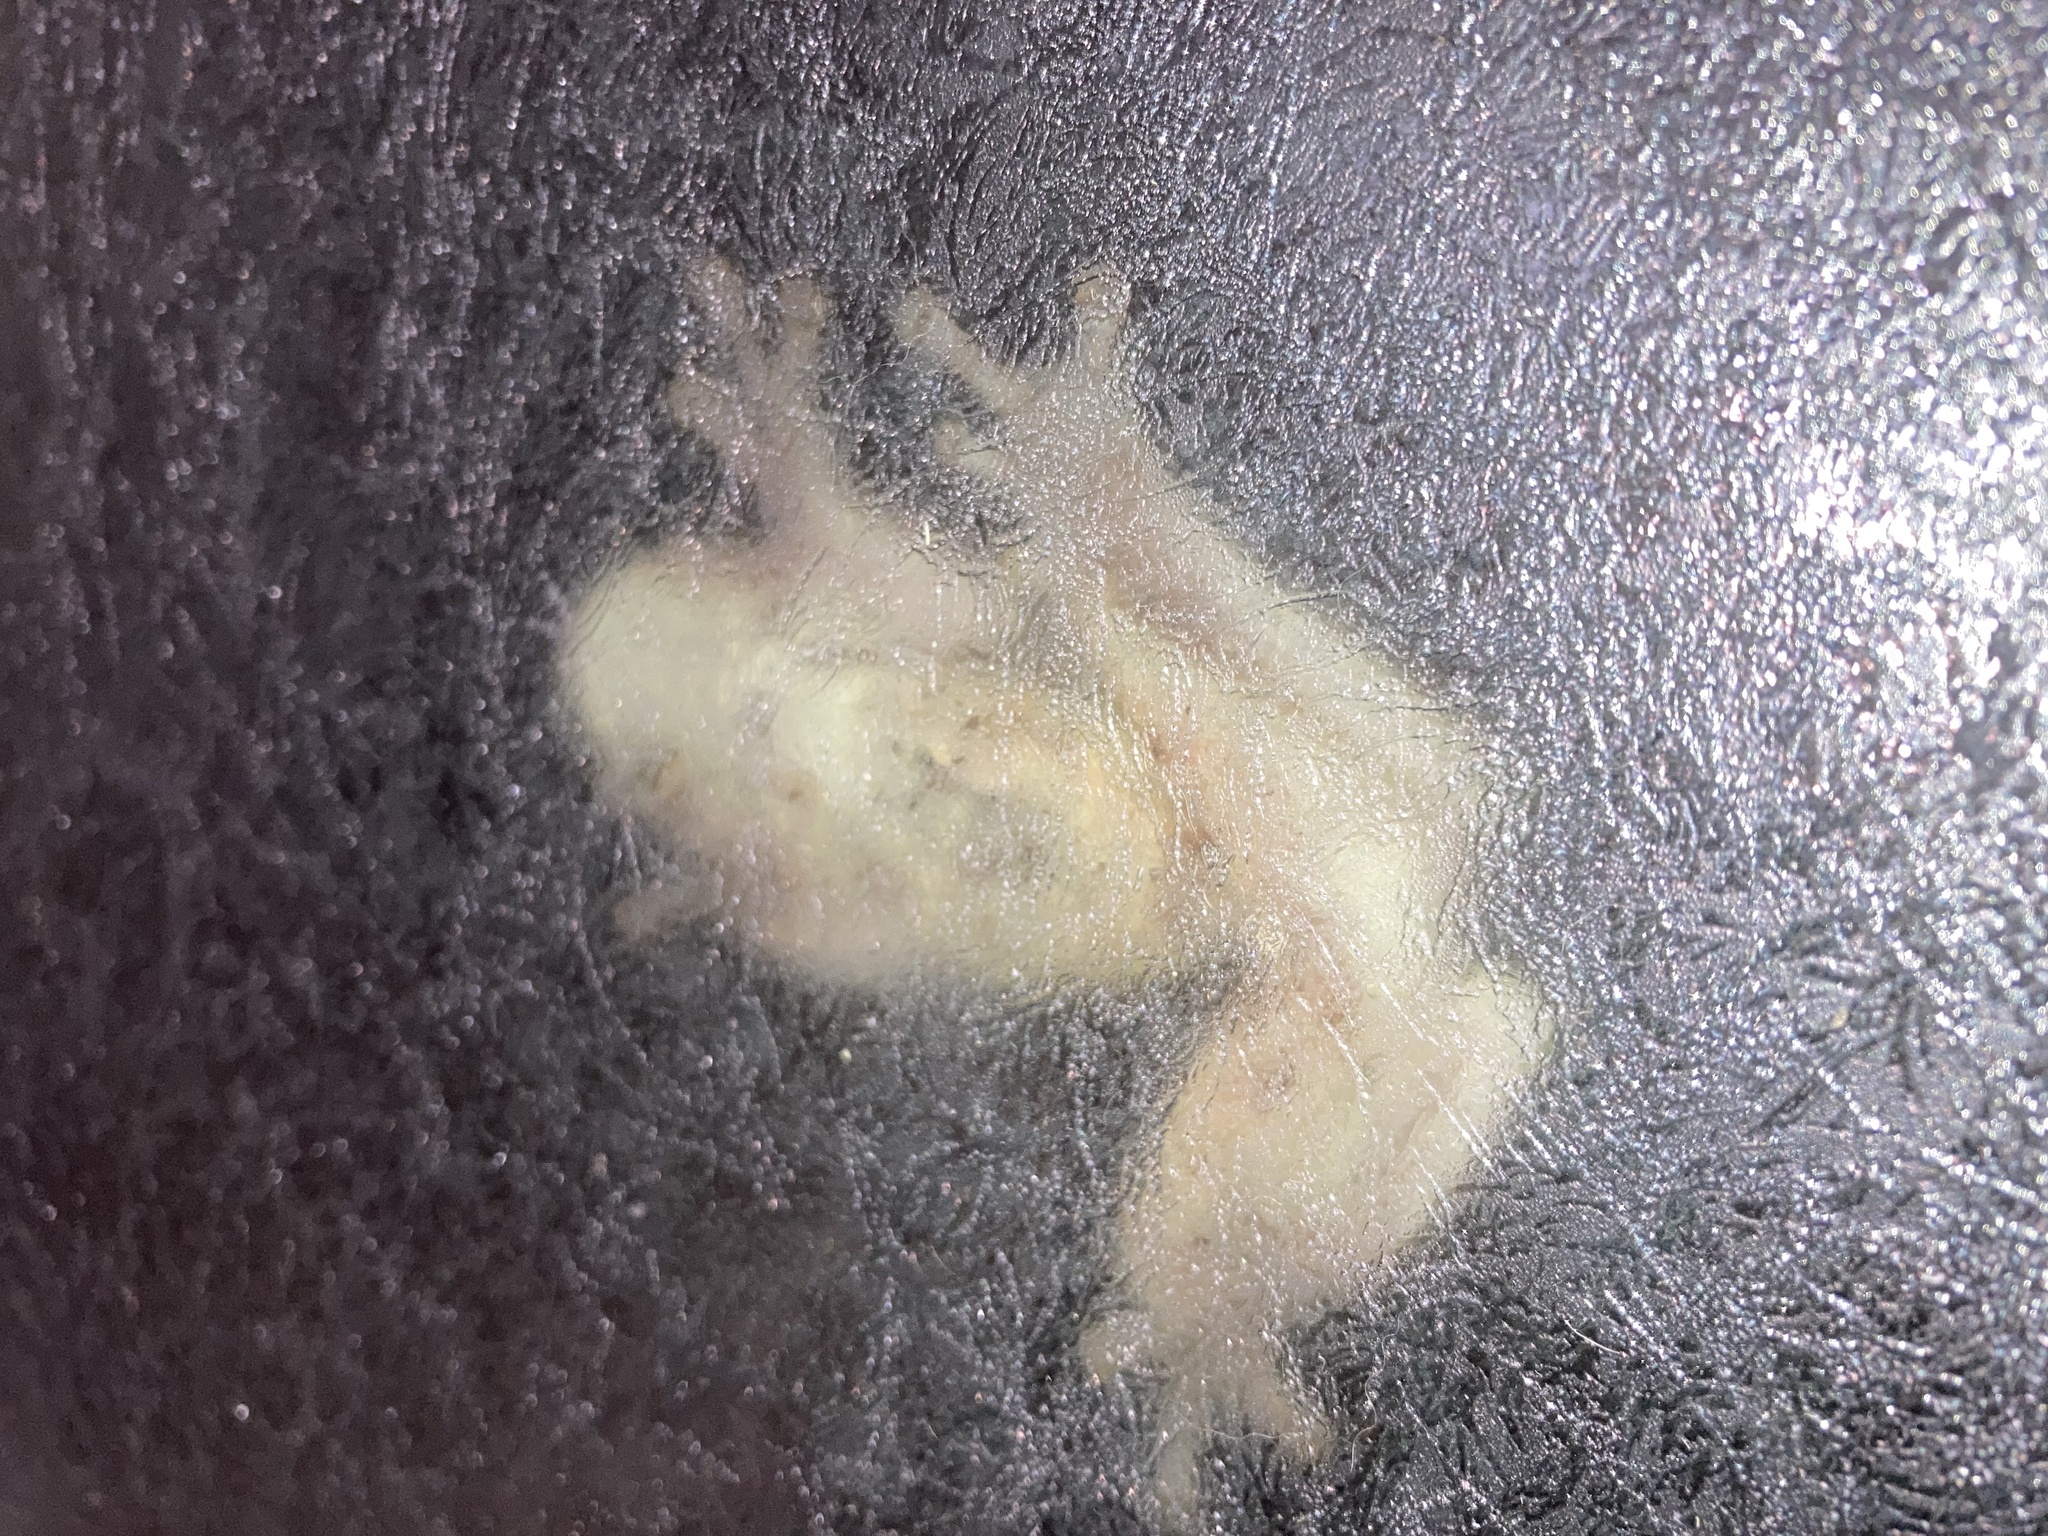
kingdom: Animalia
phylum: Chordata
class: Amphibia
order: Anura
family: Hylidae
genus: Osteopilus
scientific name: Osteopilus septentrionalis
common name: Cuban treefrog
